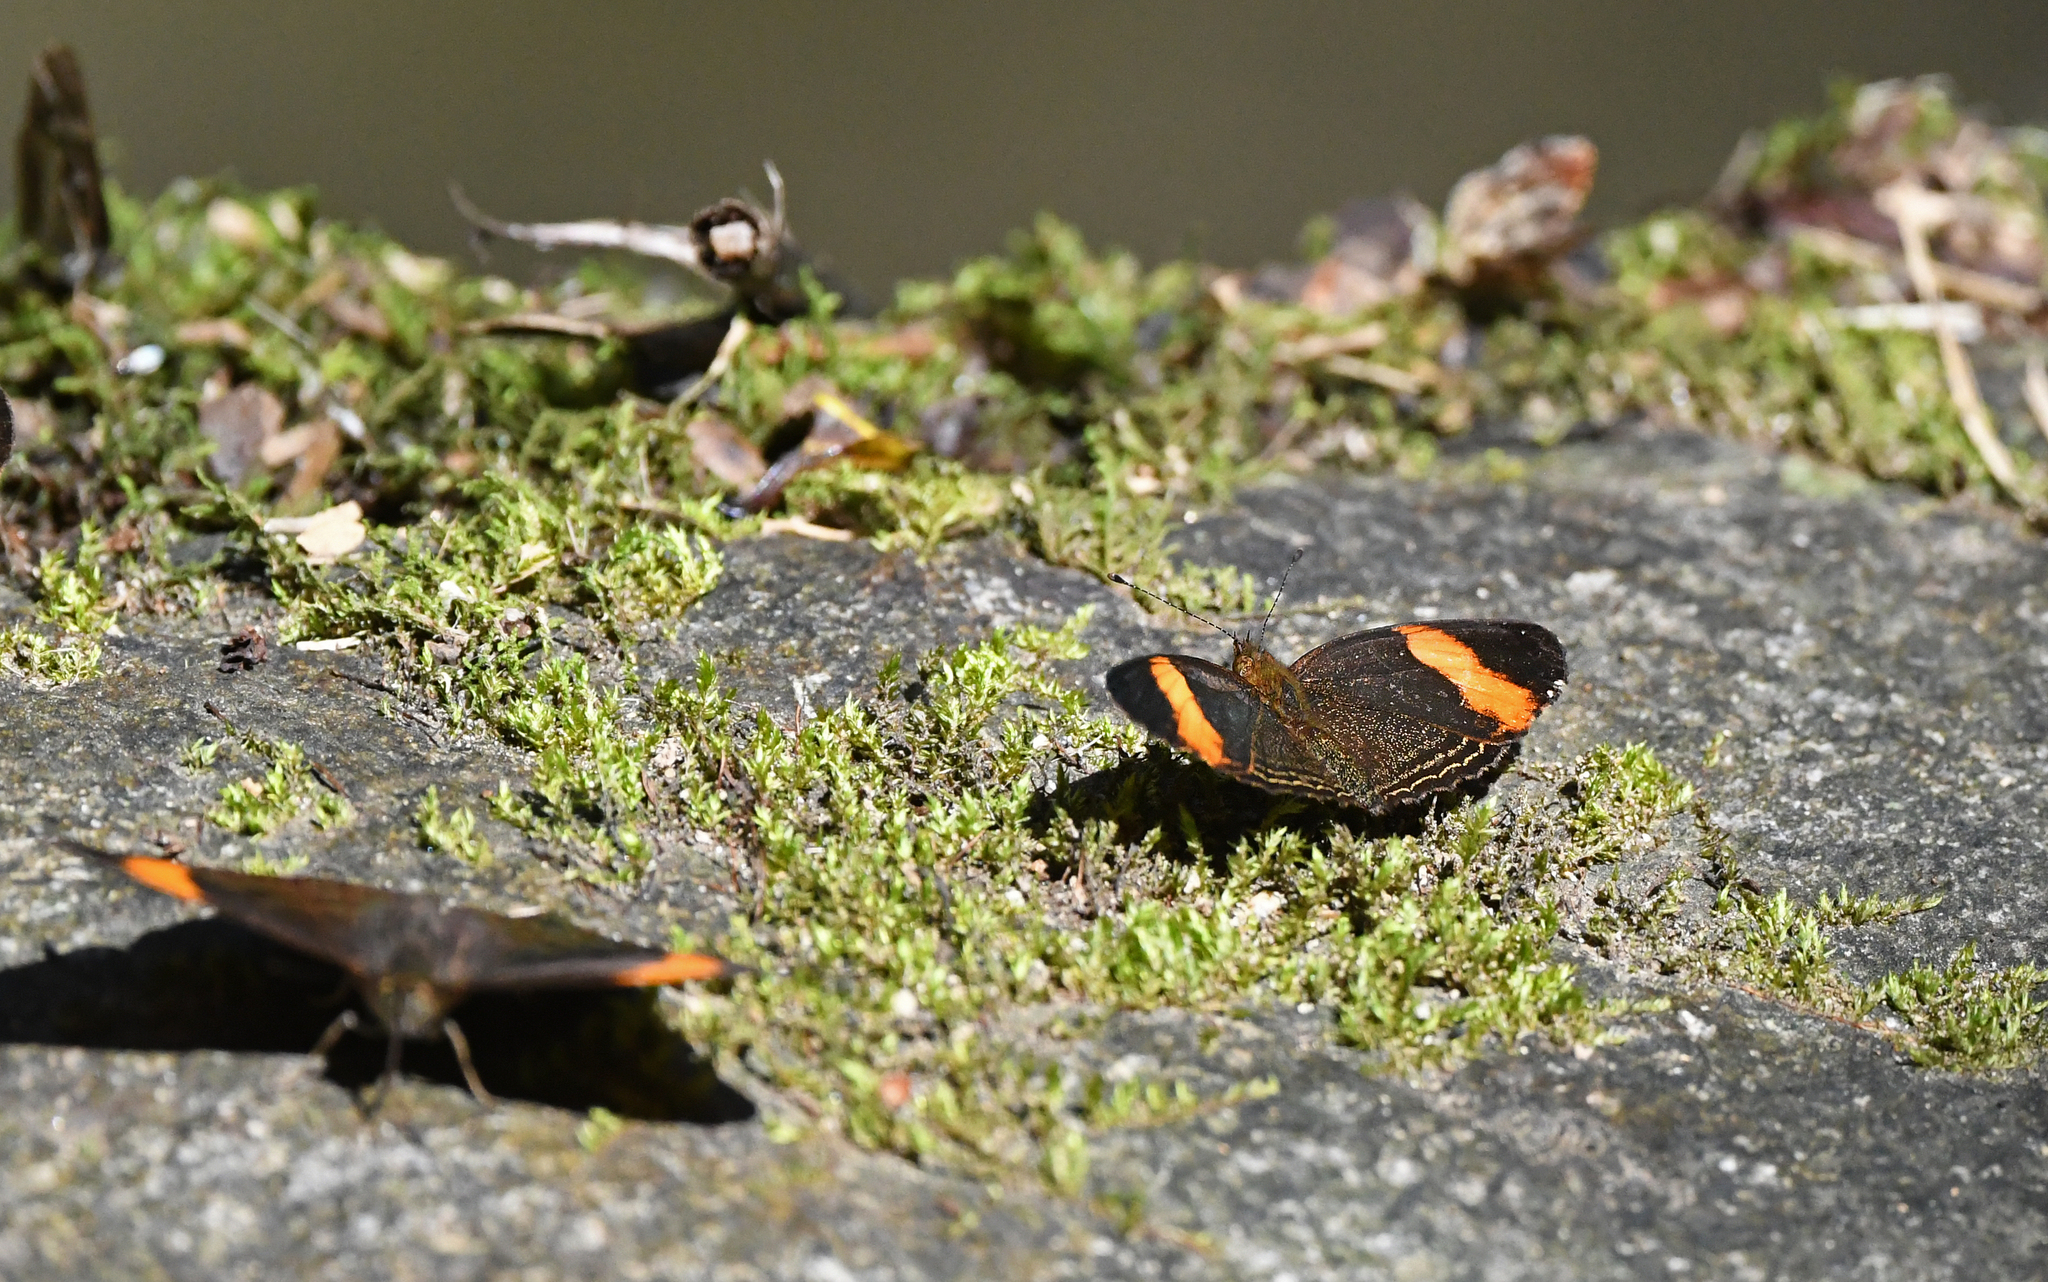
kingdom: Animalia
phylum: Arthropoda
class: Insecta
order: Lepidoptera
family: Nymphalidae
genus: Telenassa
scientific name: Telenassa jana
